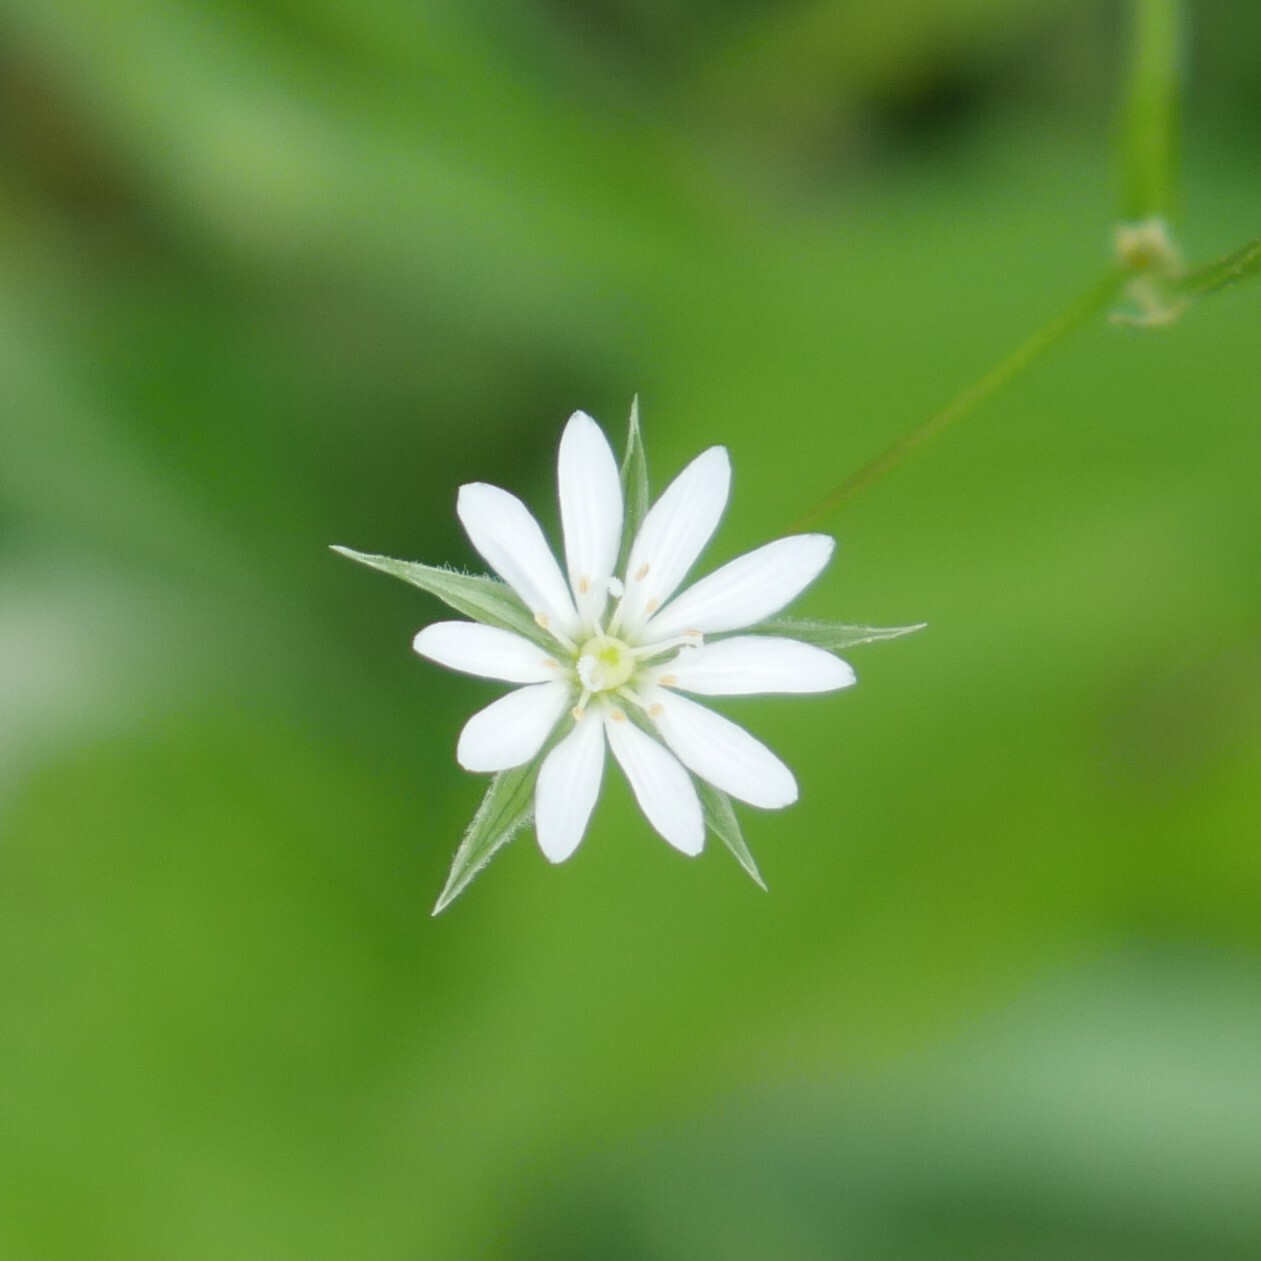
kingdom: Plantae
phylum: Tracheophyta
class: Magnoliopsida
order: Caryophyllales
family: Caryophyllaceae
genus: Stellaria
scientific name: Stellaria graminea
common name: Grass-like starwort
